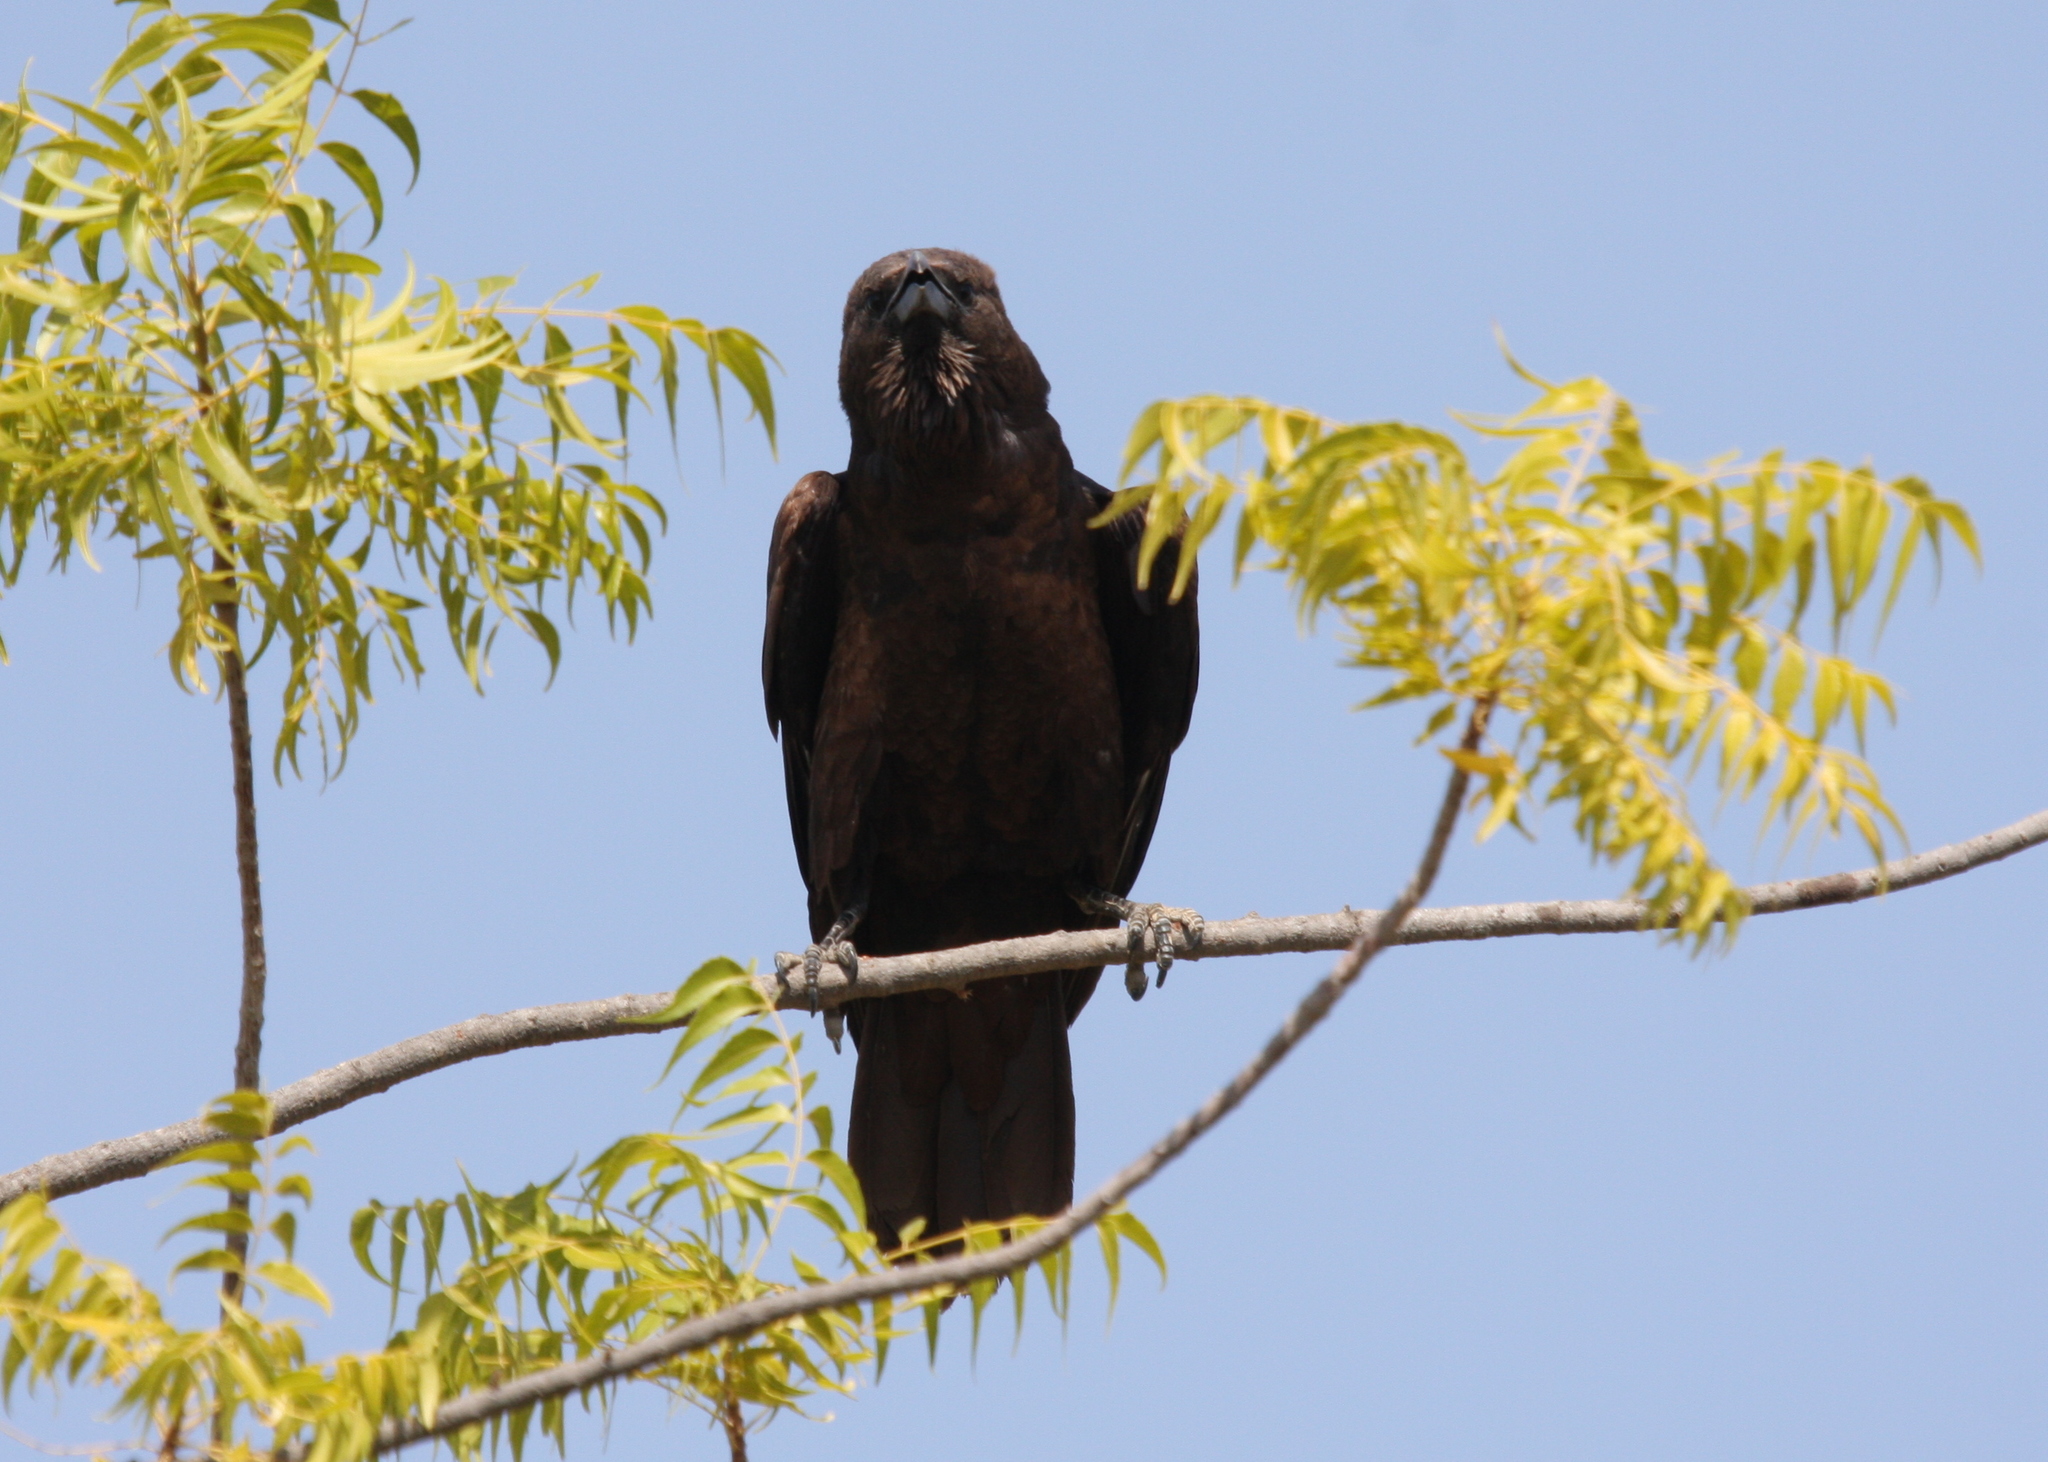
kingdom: Animalia
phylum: Chordata
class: Aves
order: Passeriformes
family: Corvidae
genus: Corvus
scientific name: Corvus ruficollis
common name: Brown-necked raven
